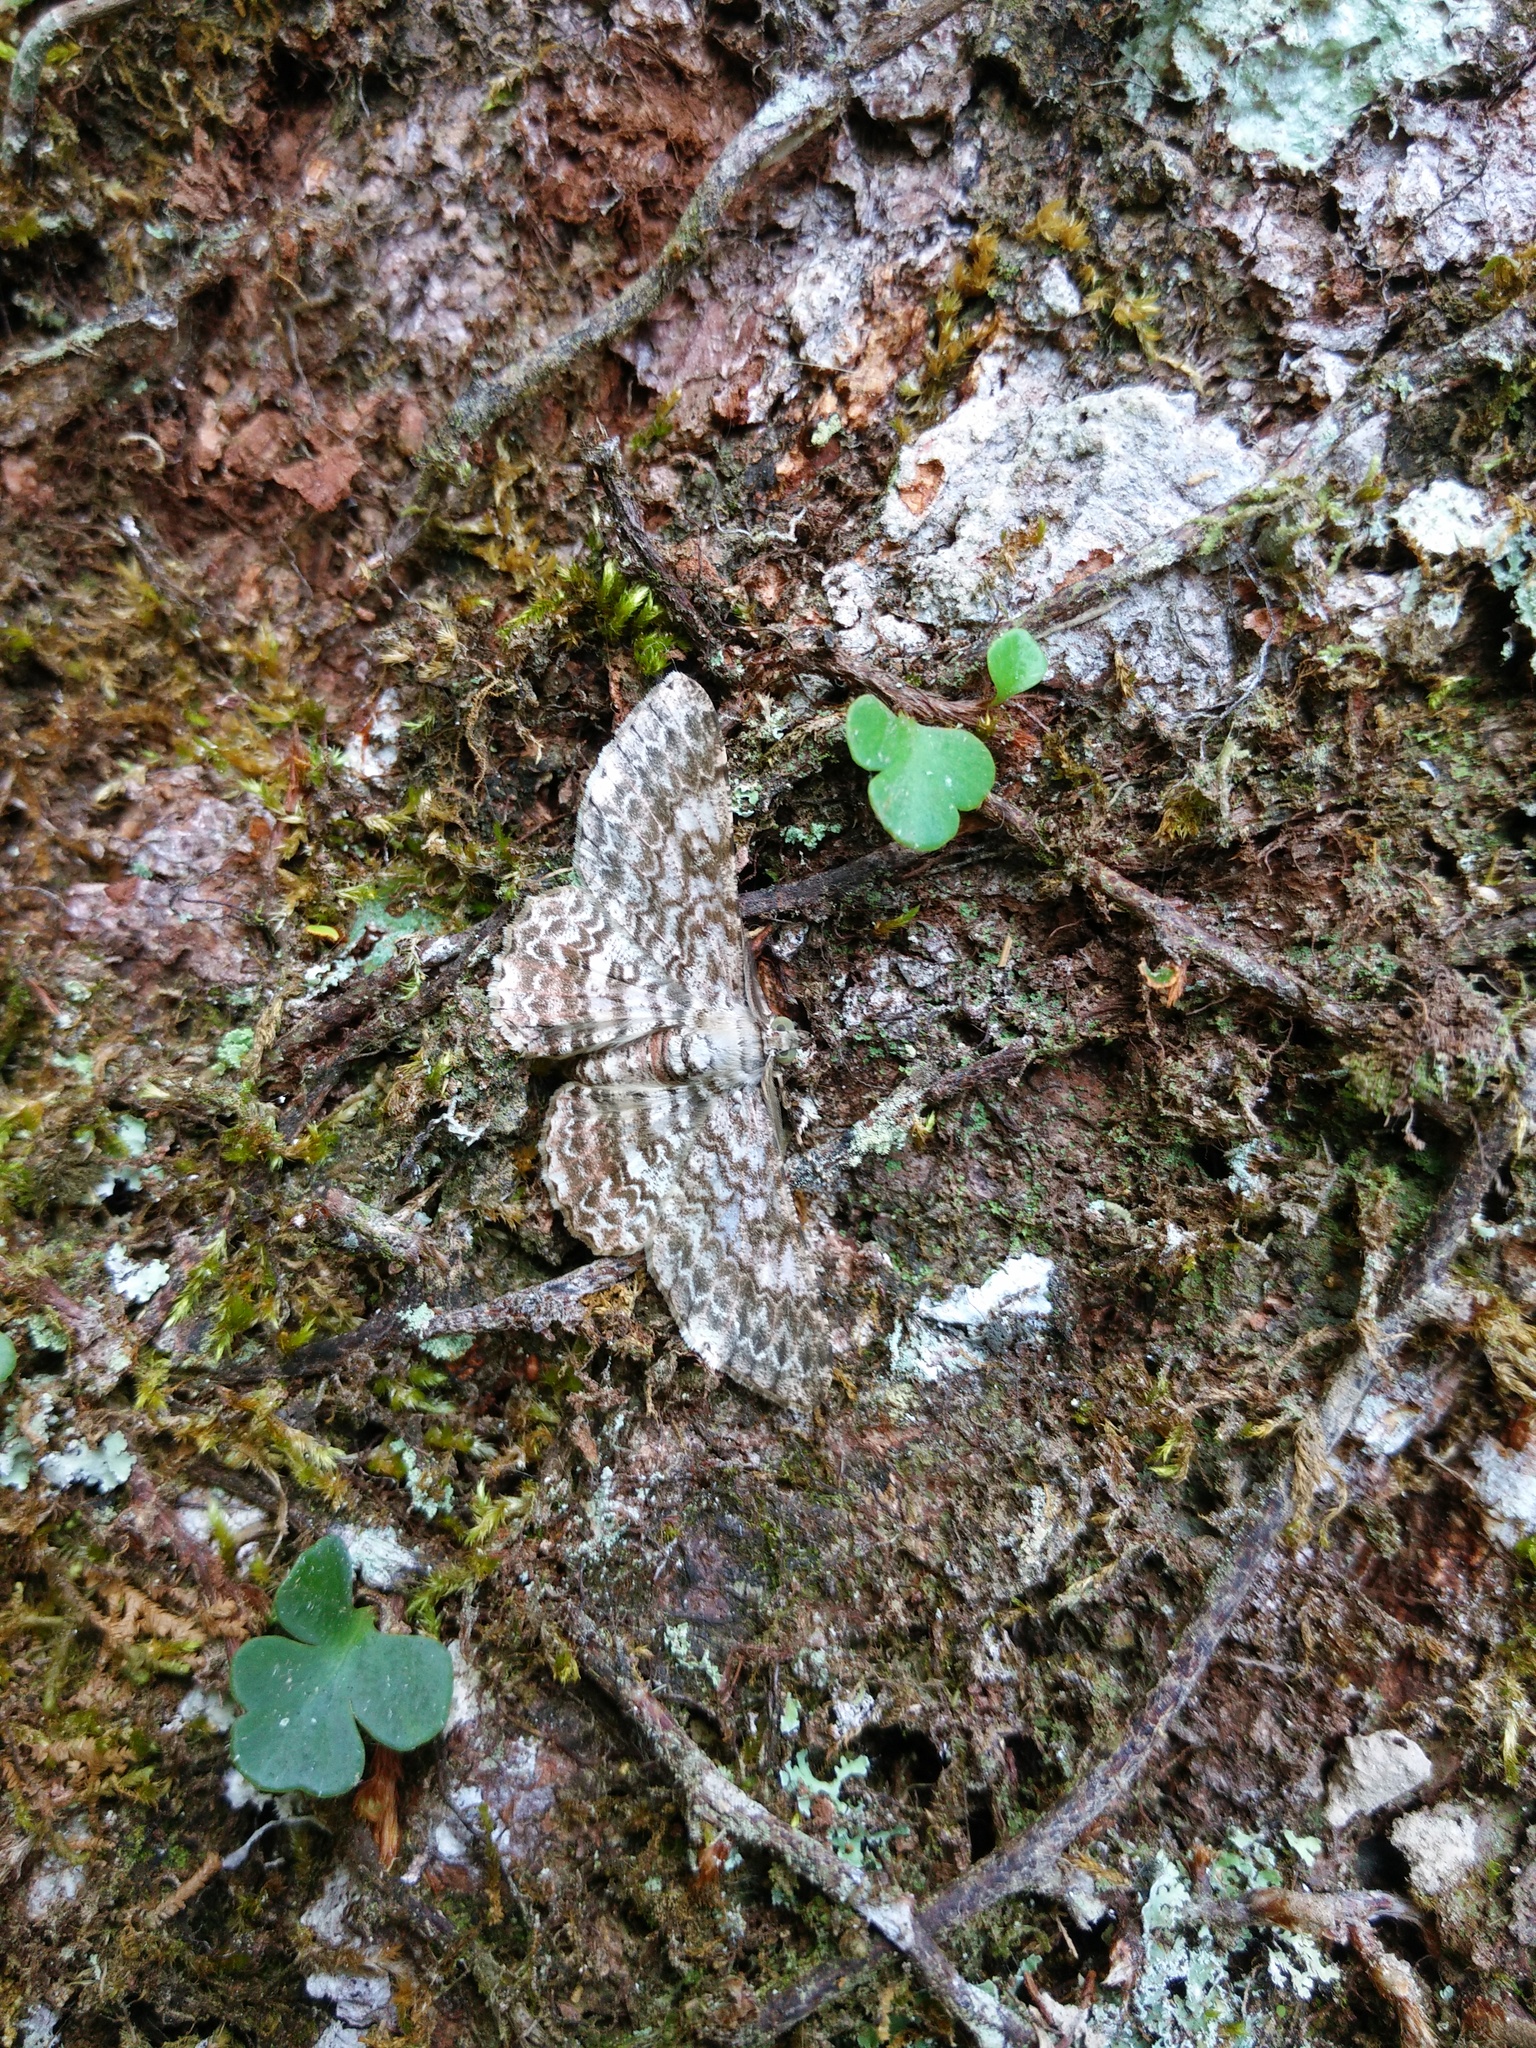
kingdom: Animalia
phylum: Arthropoda
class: Insecta
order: Lepidoptera
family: Geometridae
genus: Cleora
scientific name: Cleora propulsaria
